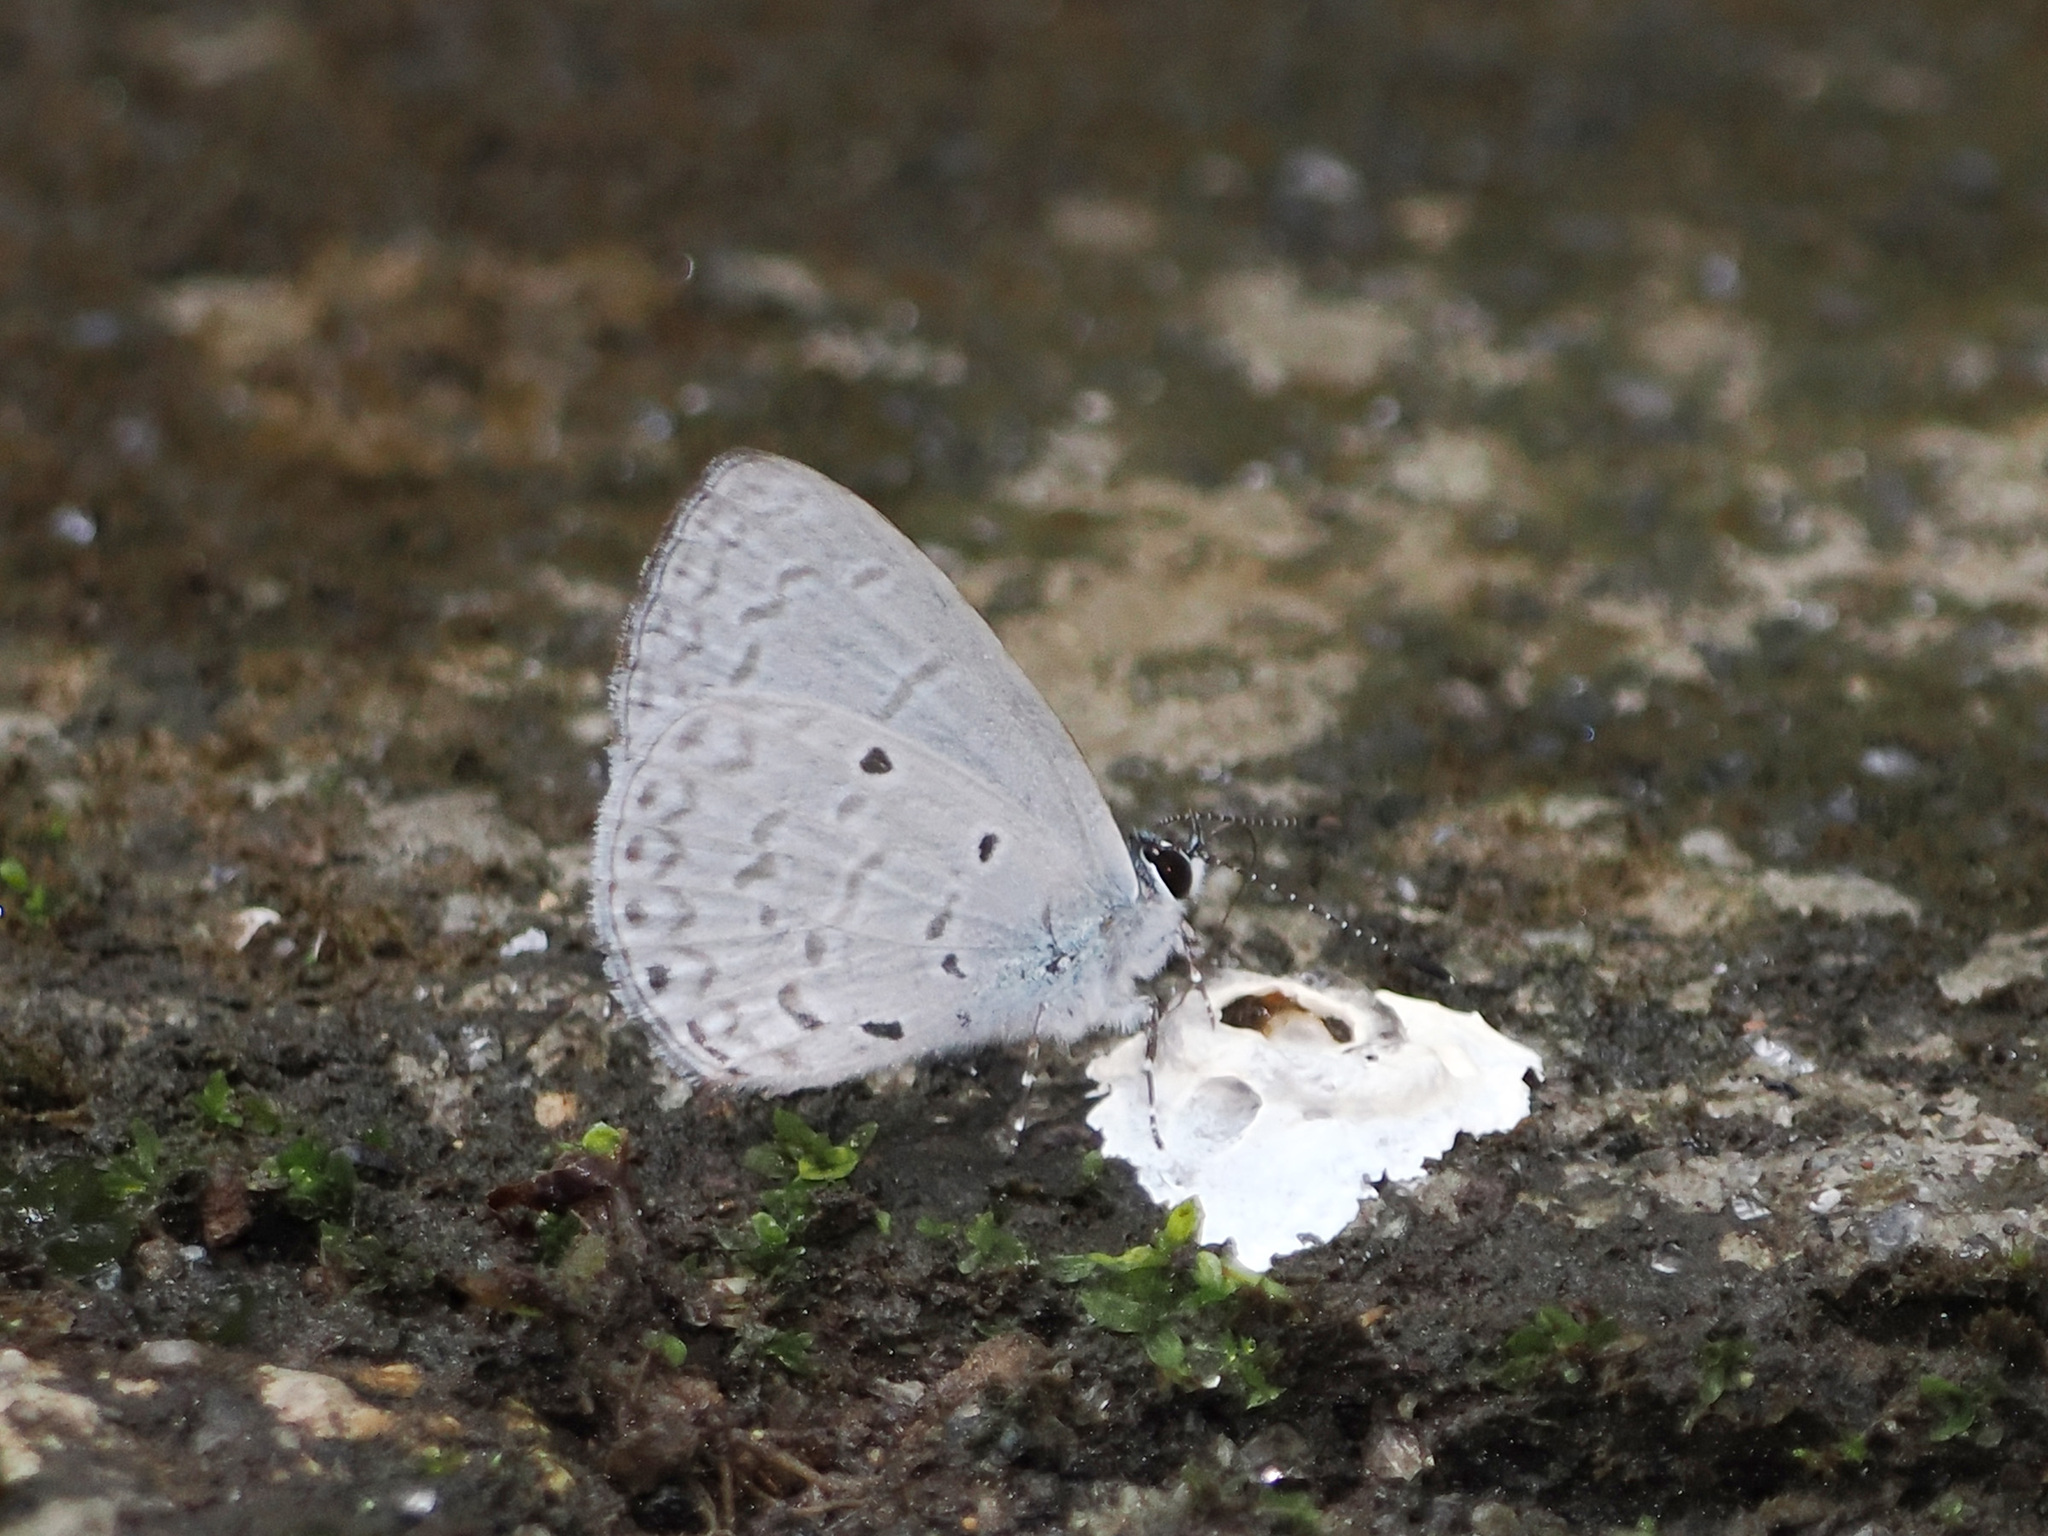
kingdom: Animalia
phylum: Arthropoda
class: Insecta
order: Lepidoptera
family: Lycaenidae
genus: Monodontides
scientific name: Monodontides
